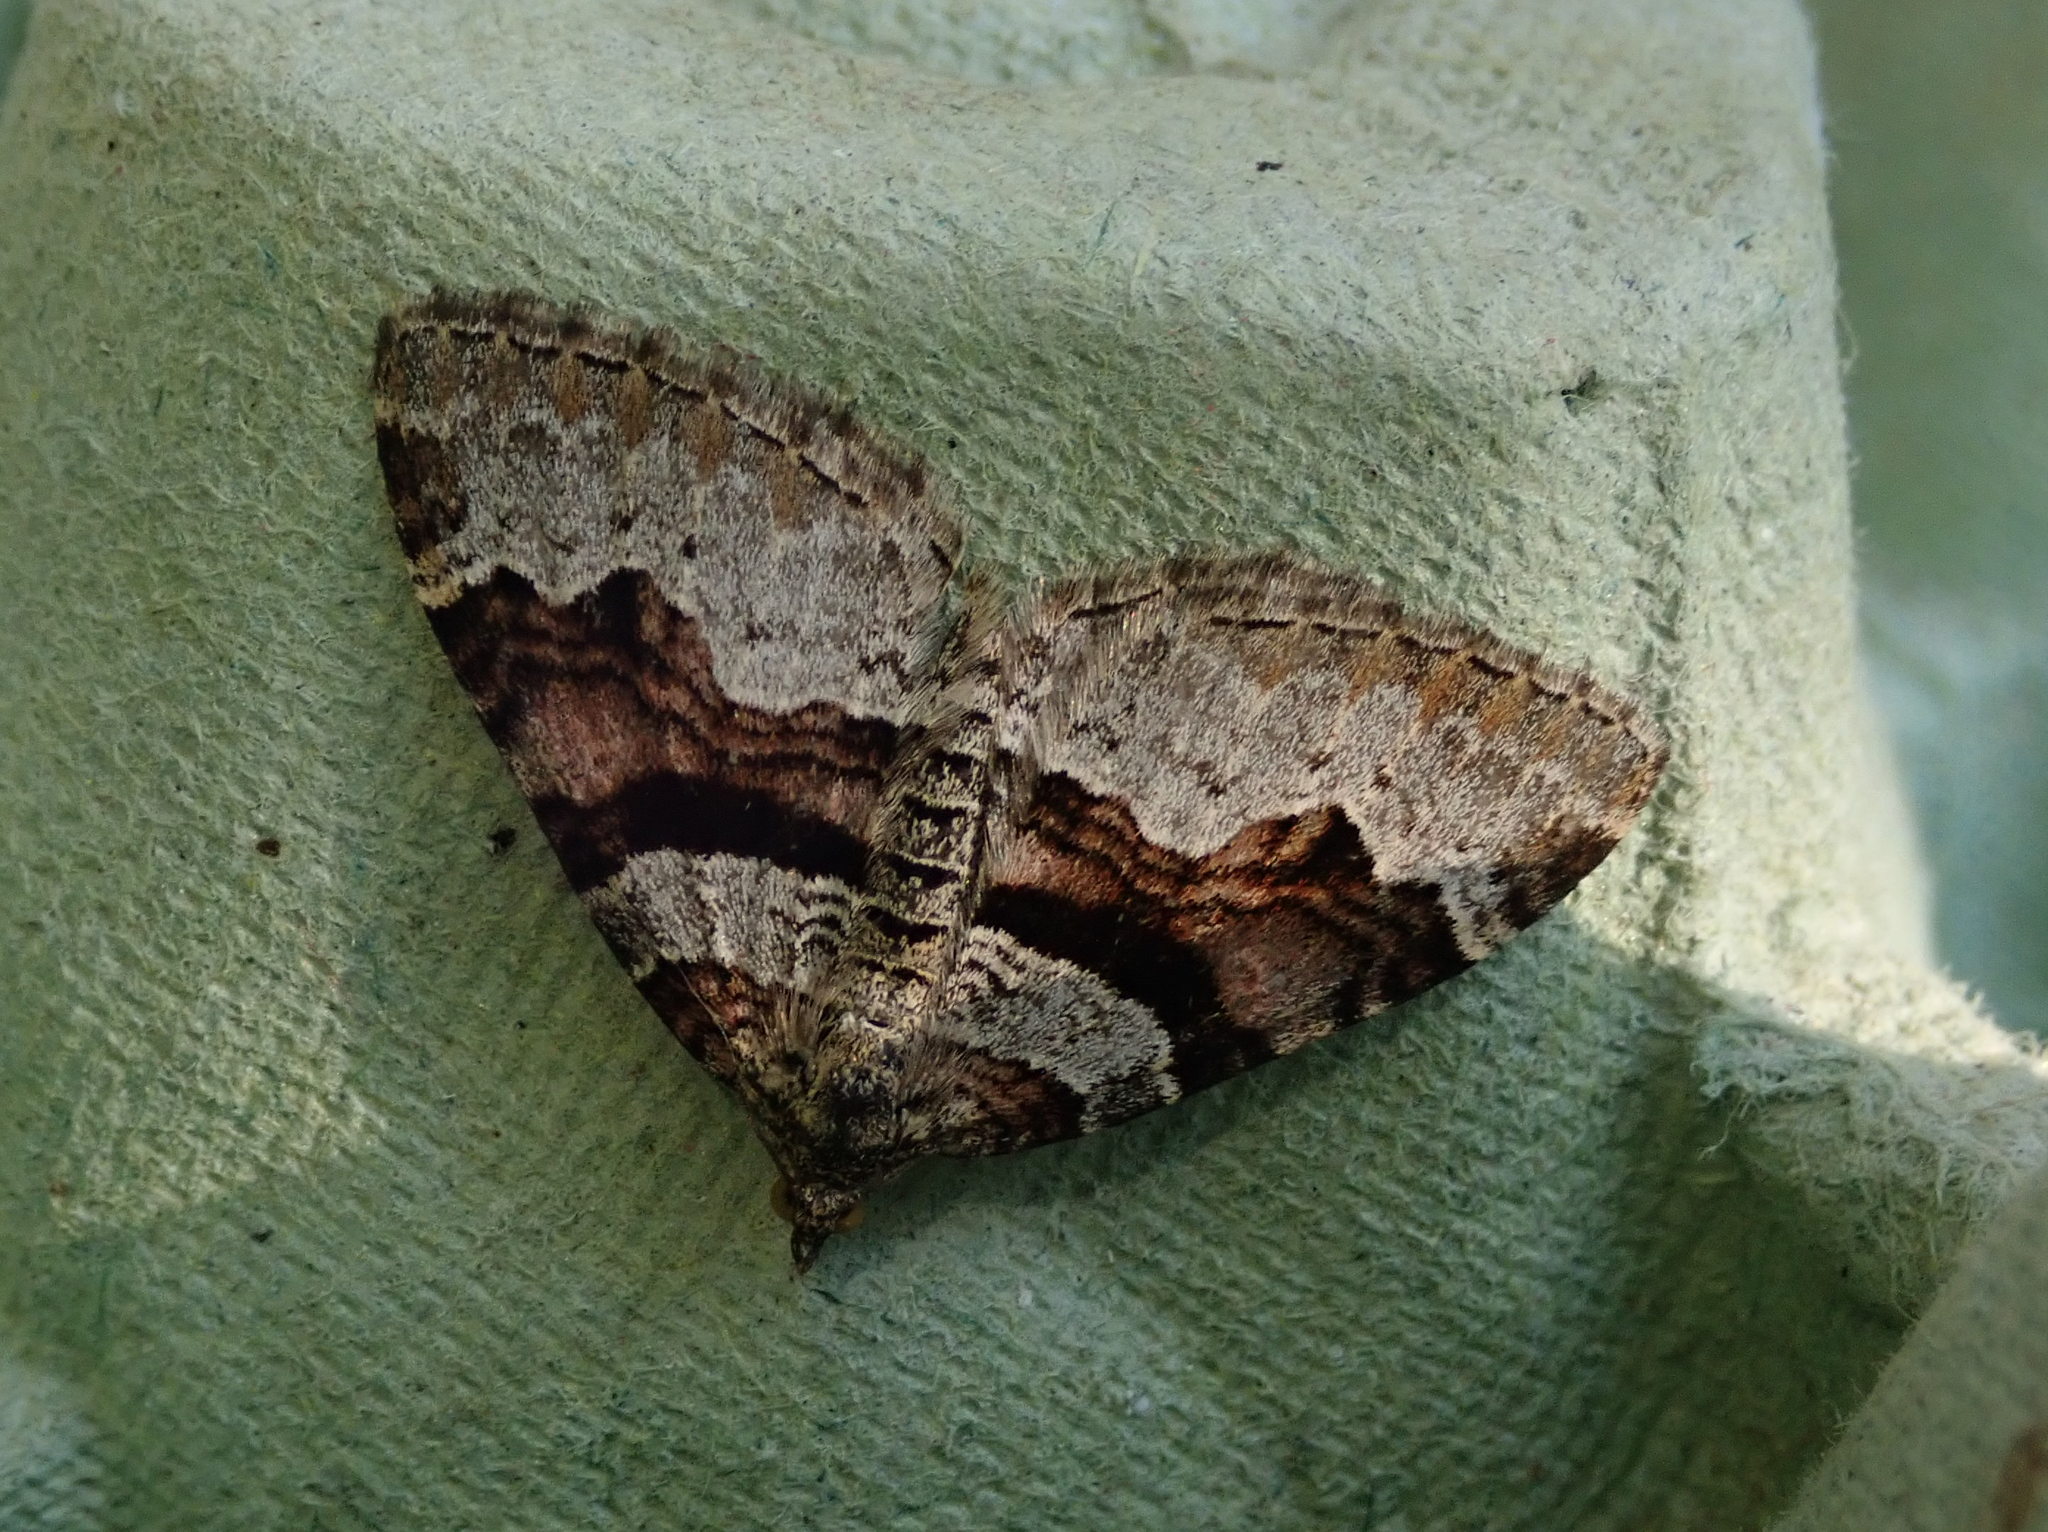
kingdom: Animalia
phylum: Arthropoda
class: Insecta
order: Lepidoptera
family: Geometridae
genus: Xanthorhoe
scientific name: Xanthorhoe designata
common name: Flame carpet
